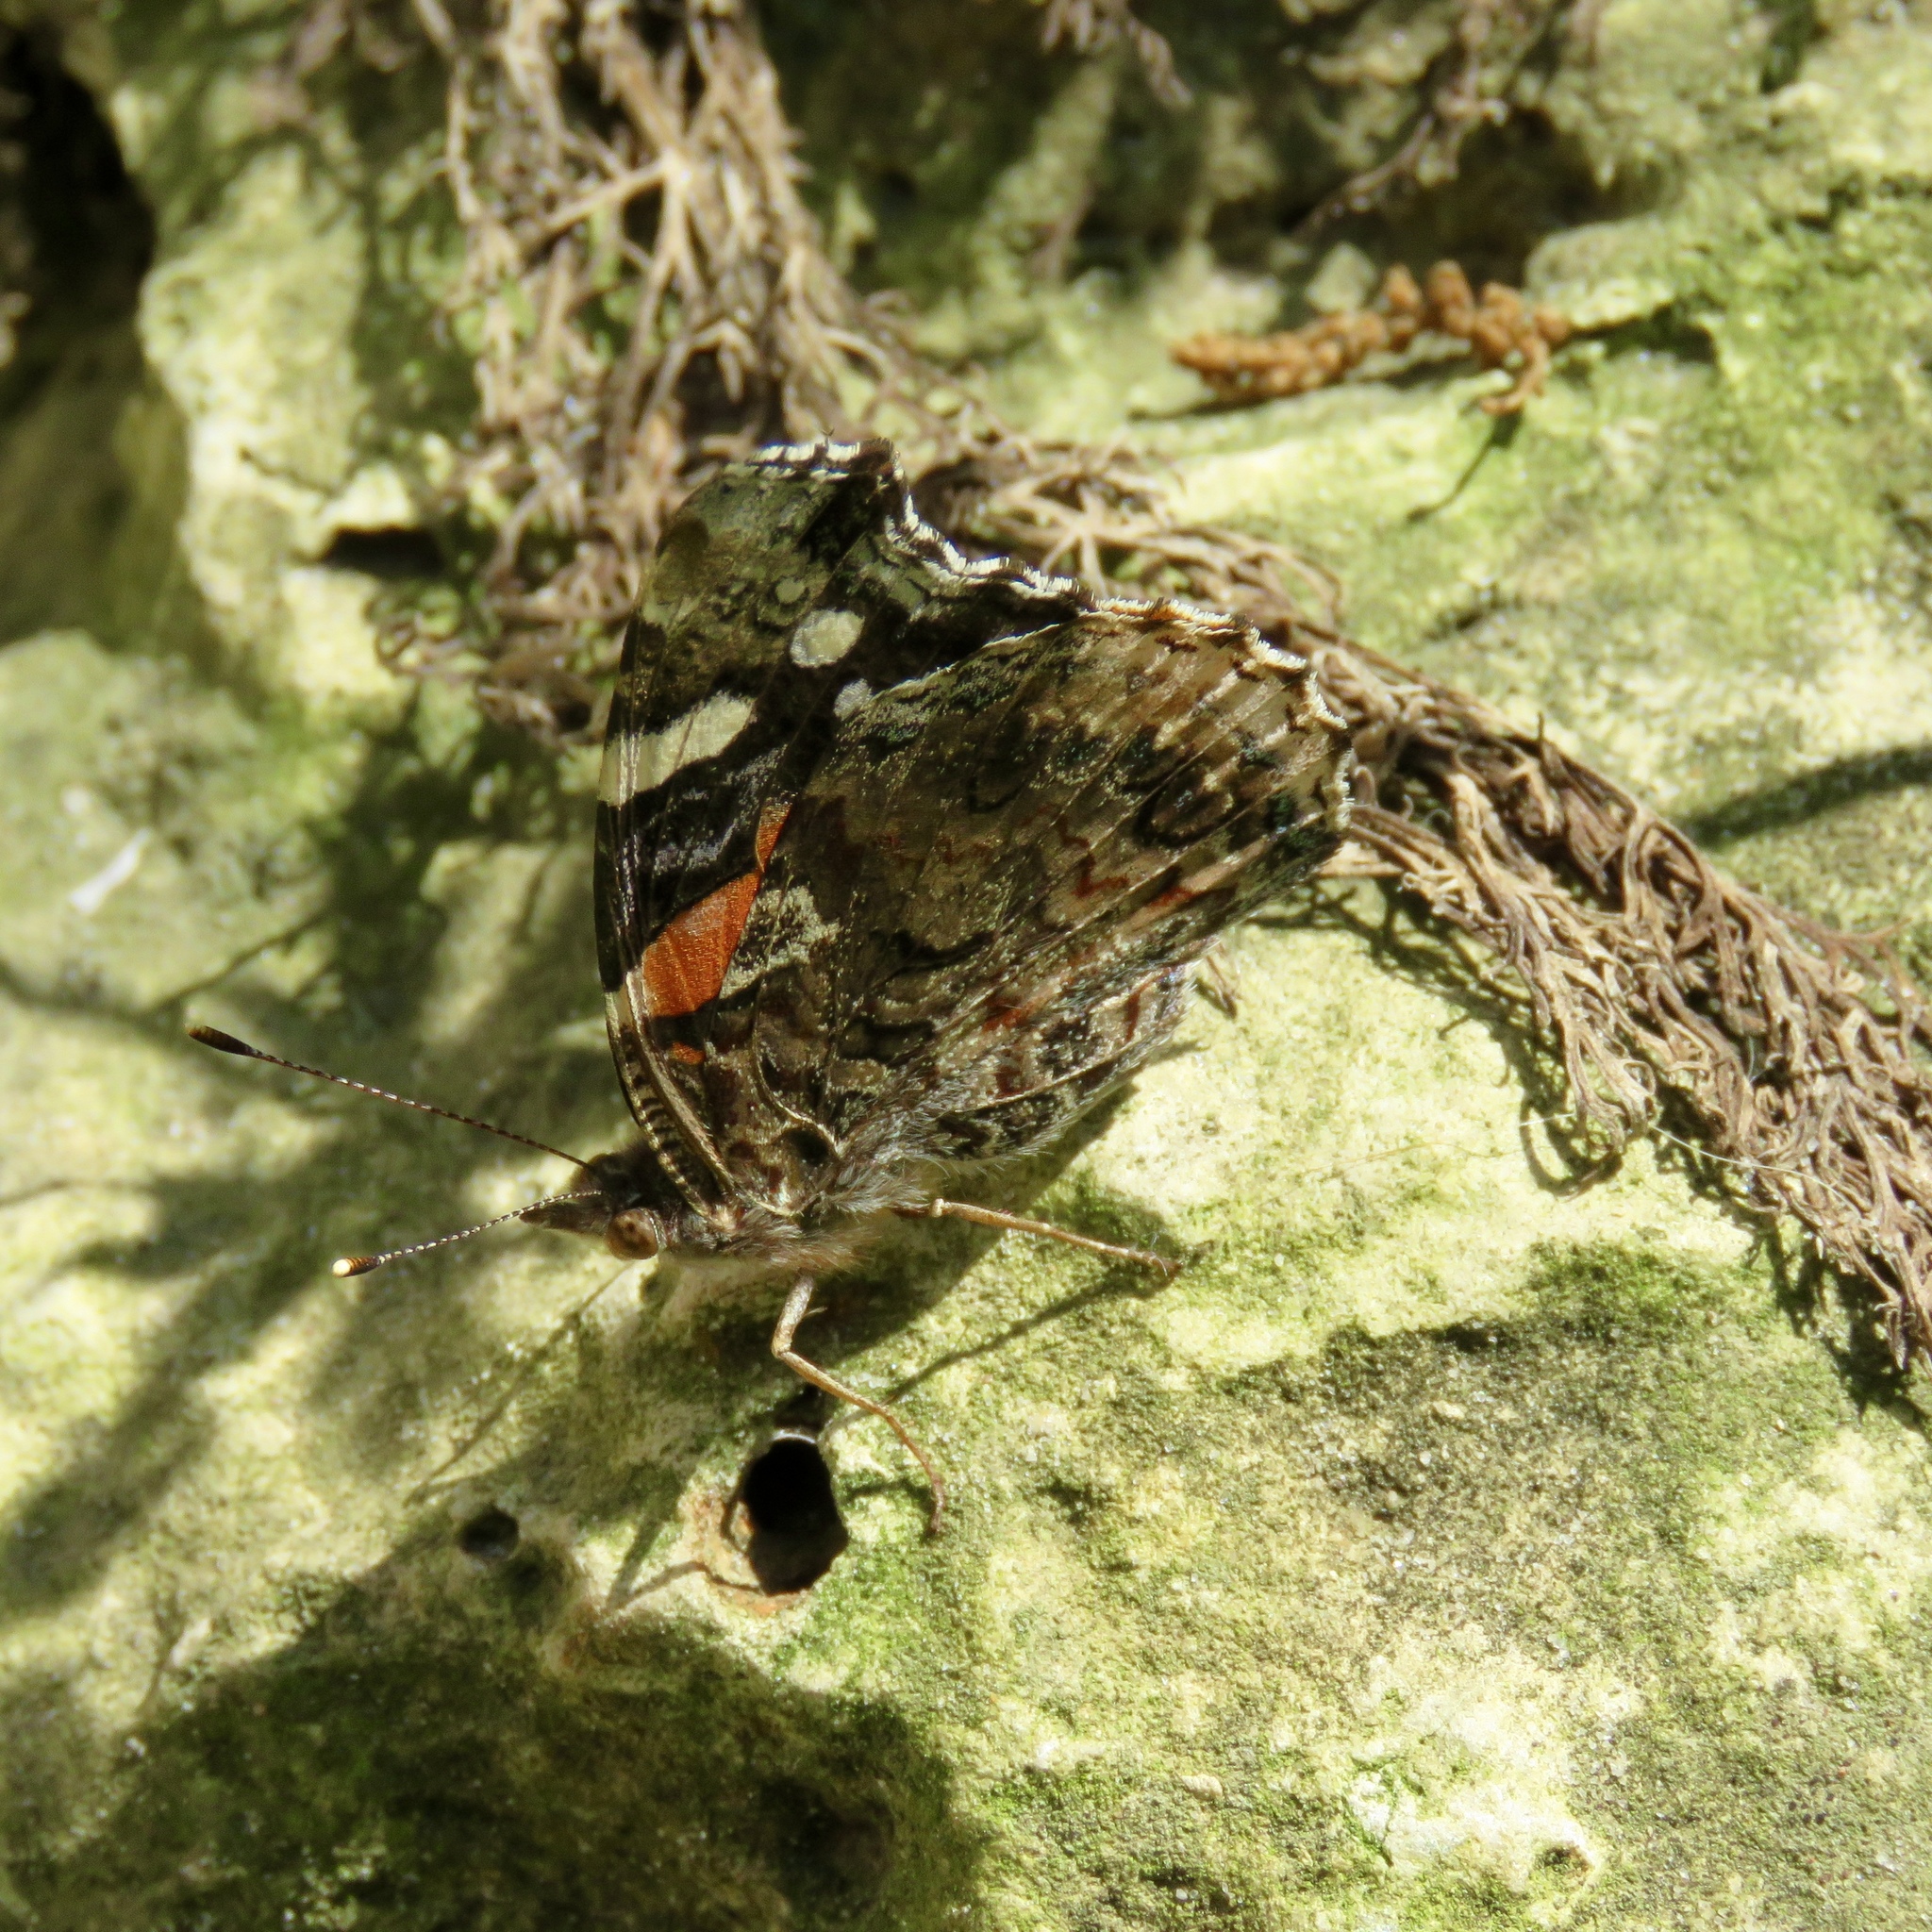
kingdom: Animalia
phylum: Arthropoda
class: Insecta
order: Lepidoptera
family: Nymphalidae
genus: Vanessa
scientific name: Vanessa atalanta
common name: Red admiral
